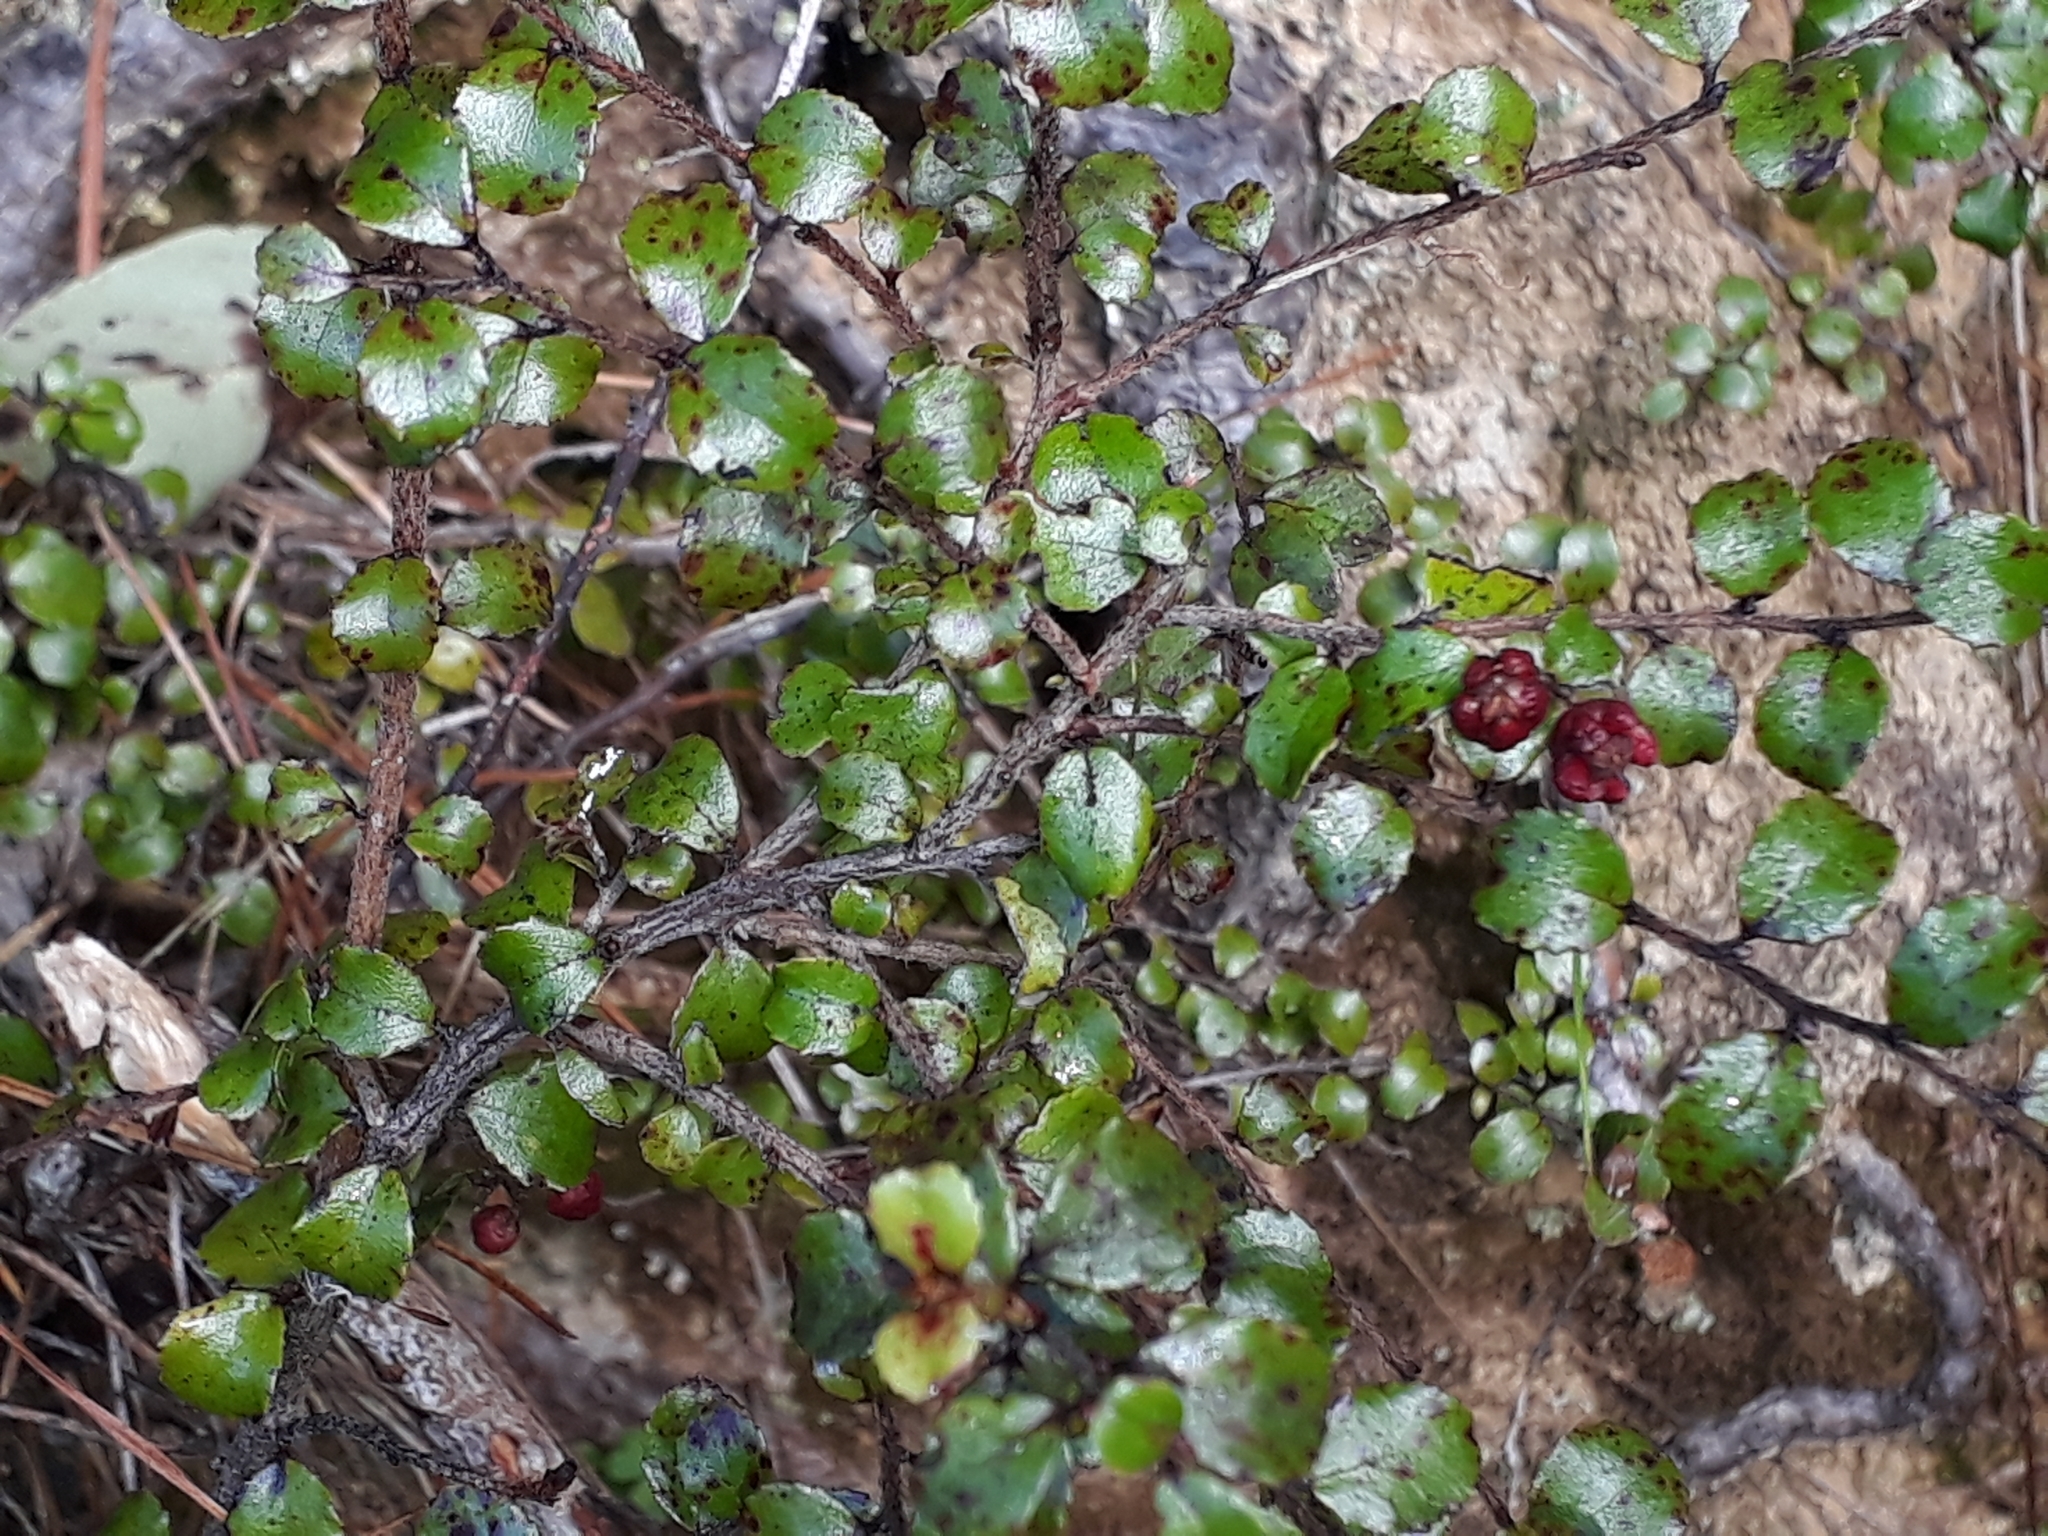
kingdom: Plantae
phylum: Tracheophyta
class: Magnoliopsida
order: Ericales
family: Ericaceae
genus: Gaultheria
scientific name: Gaultheria antipoda
